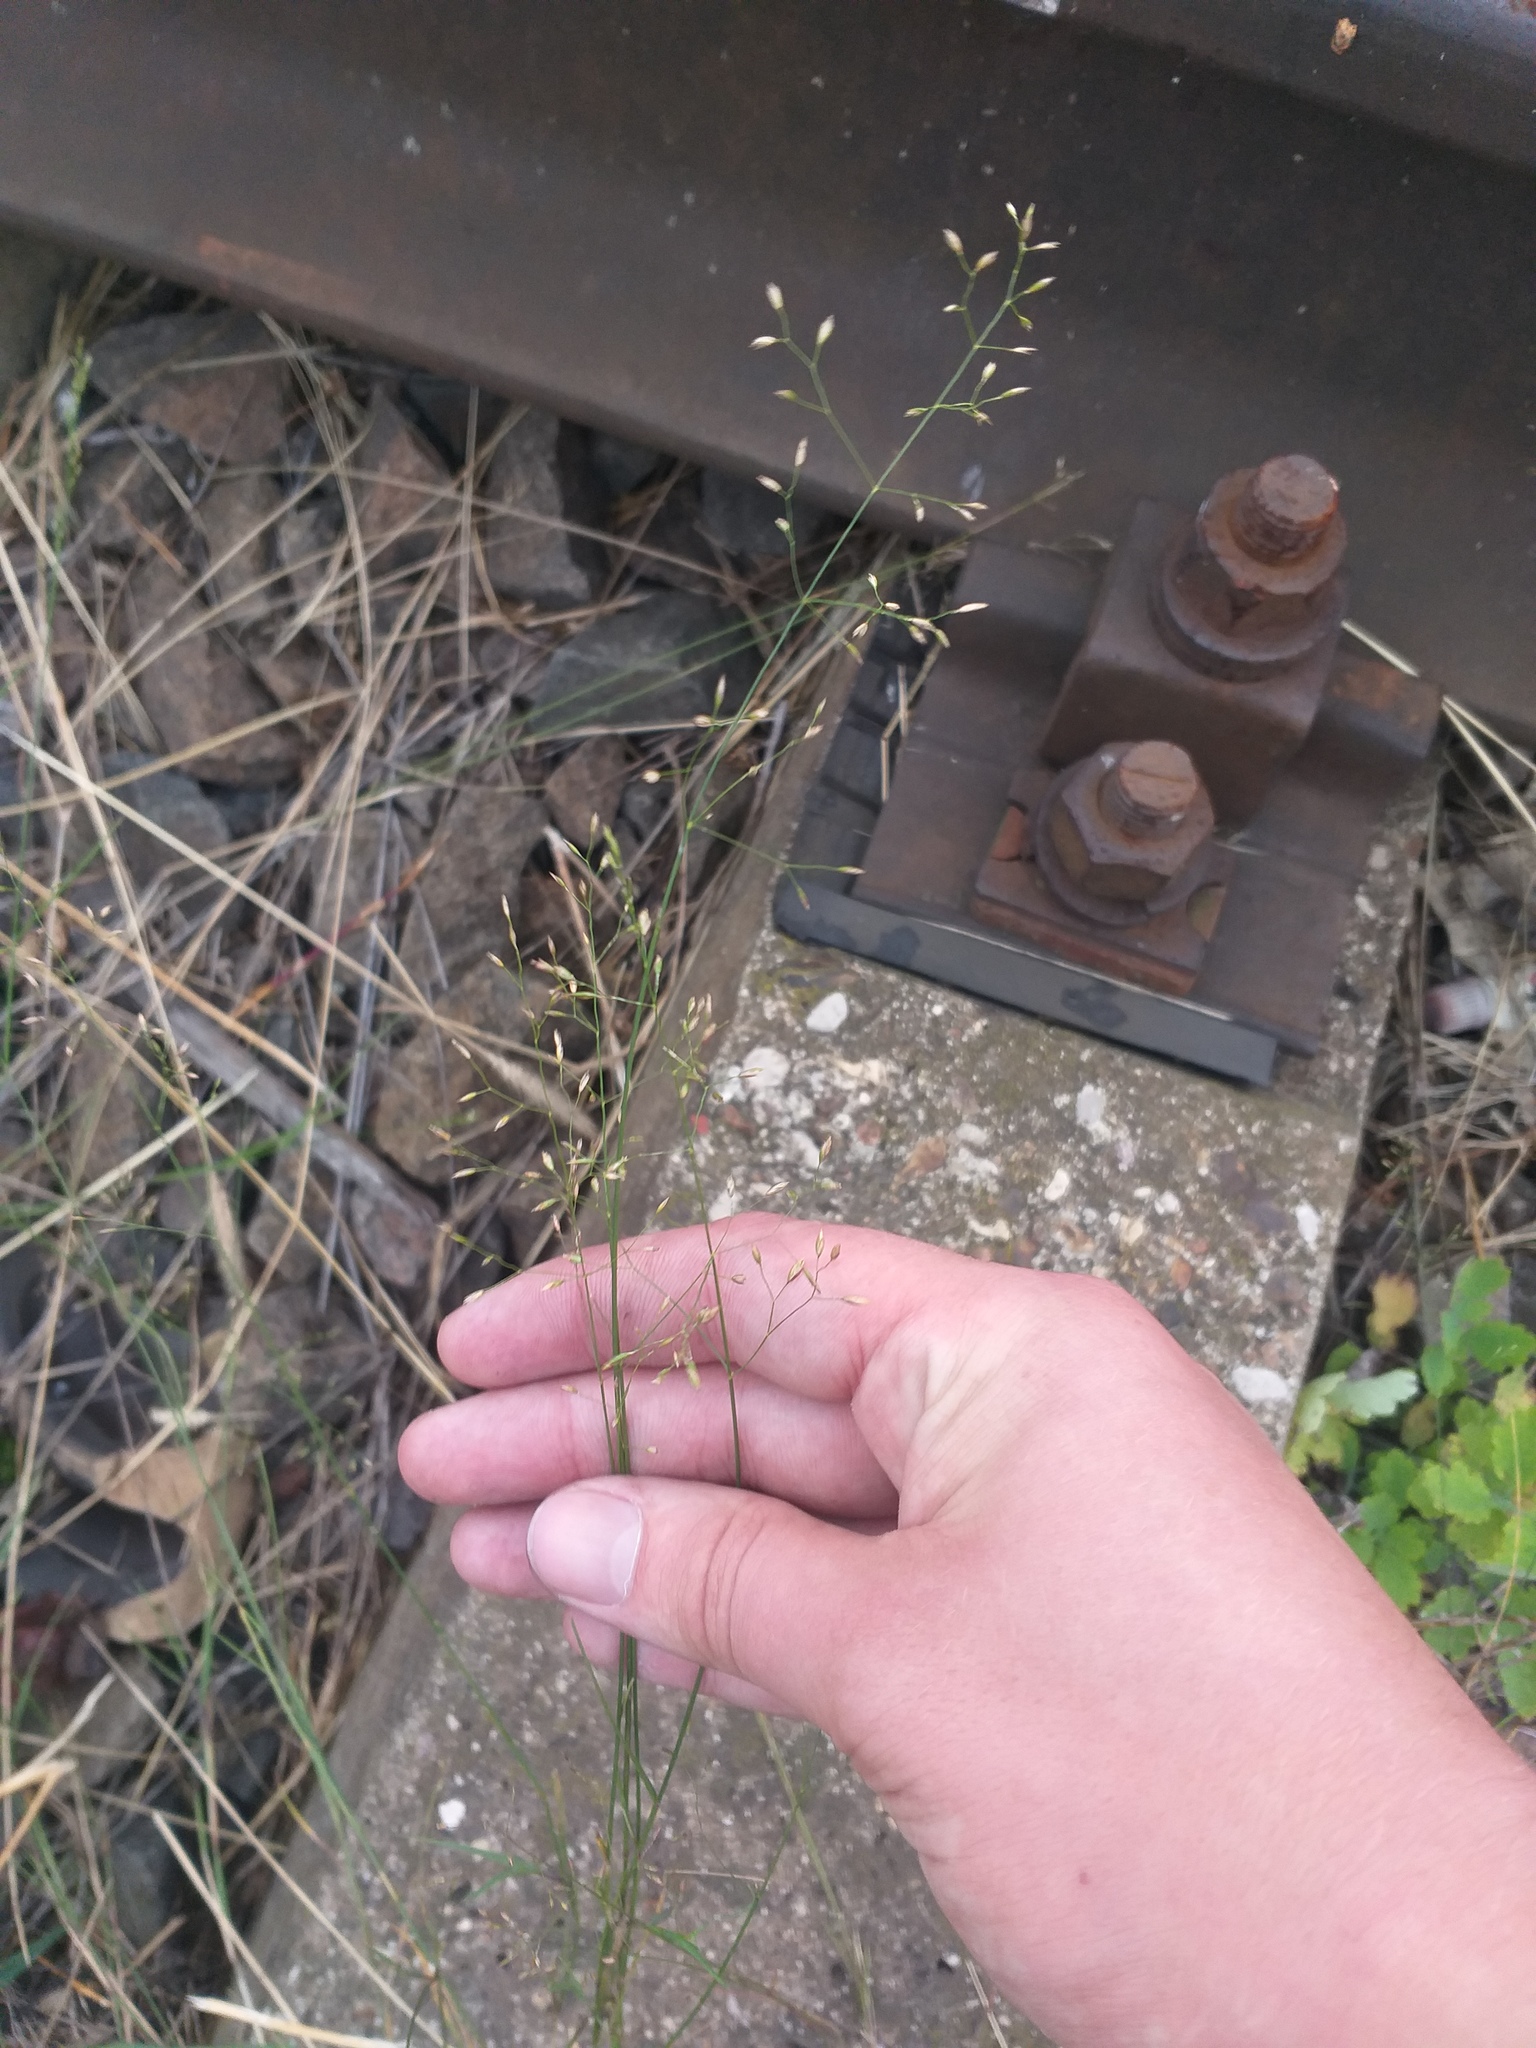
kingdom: Plantae
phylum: Tracheophyta
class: Liliopsida
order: Poales
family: Poaceae
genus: Poa
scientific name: Poa palustris
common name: Swamp meadow-grass
